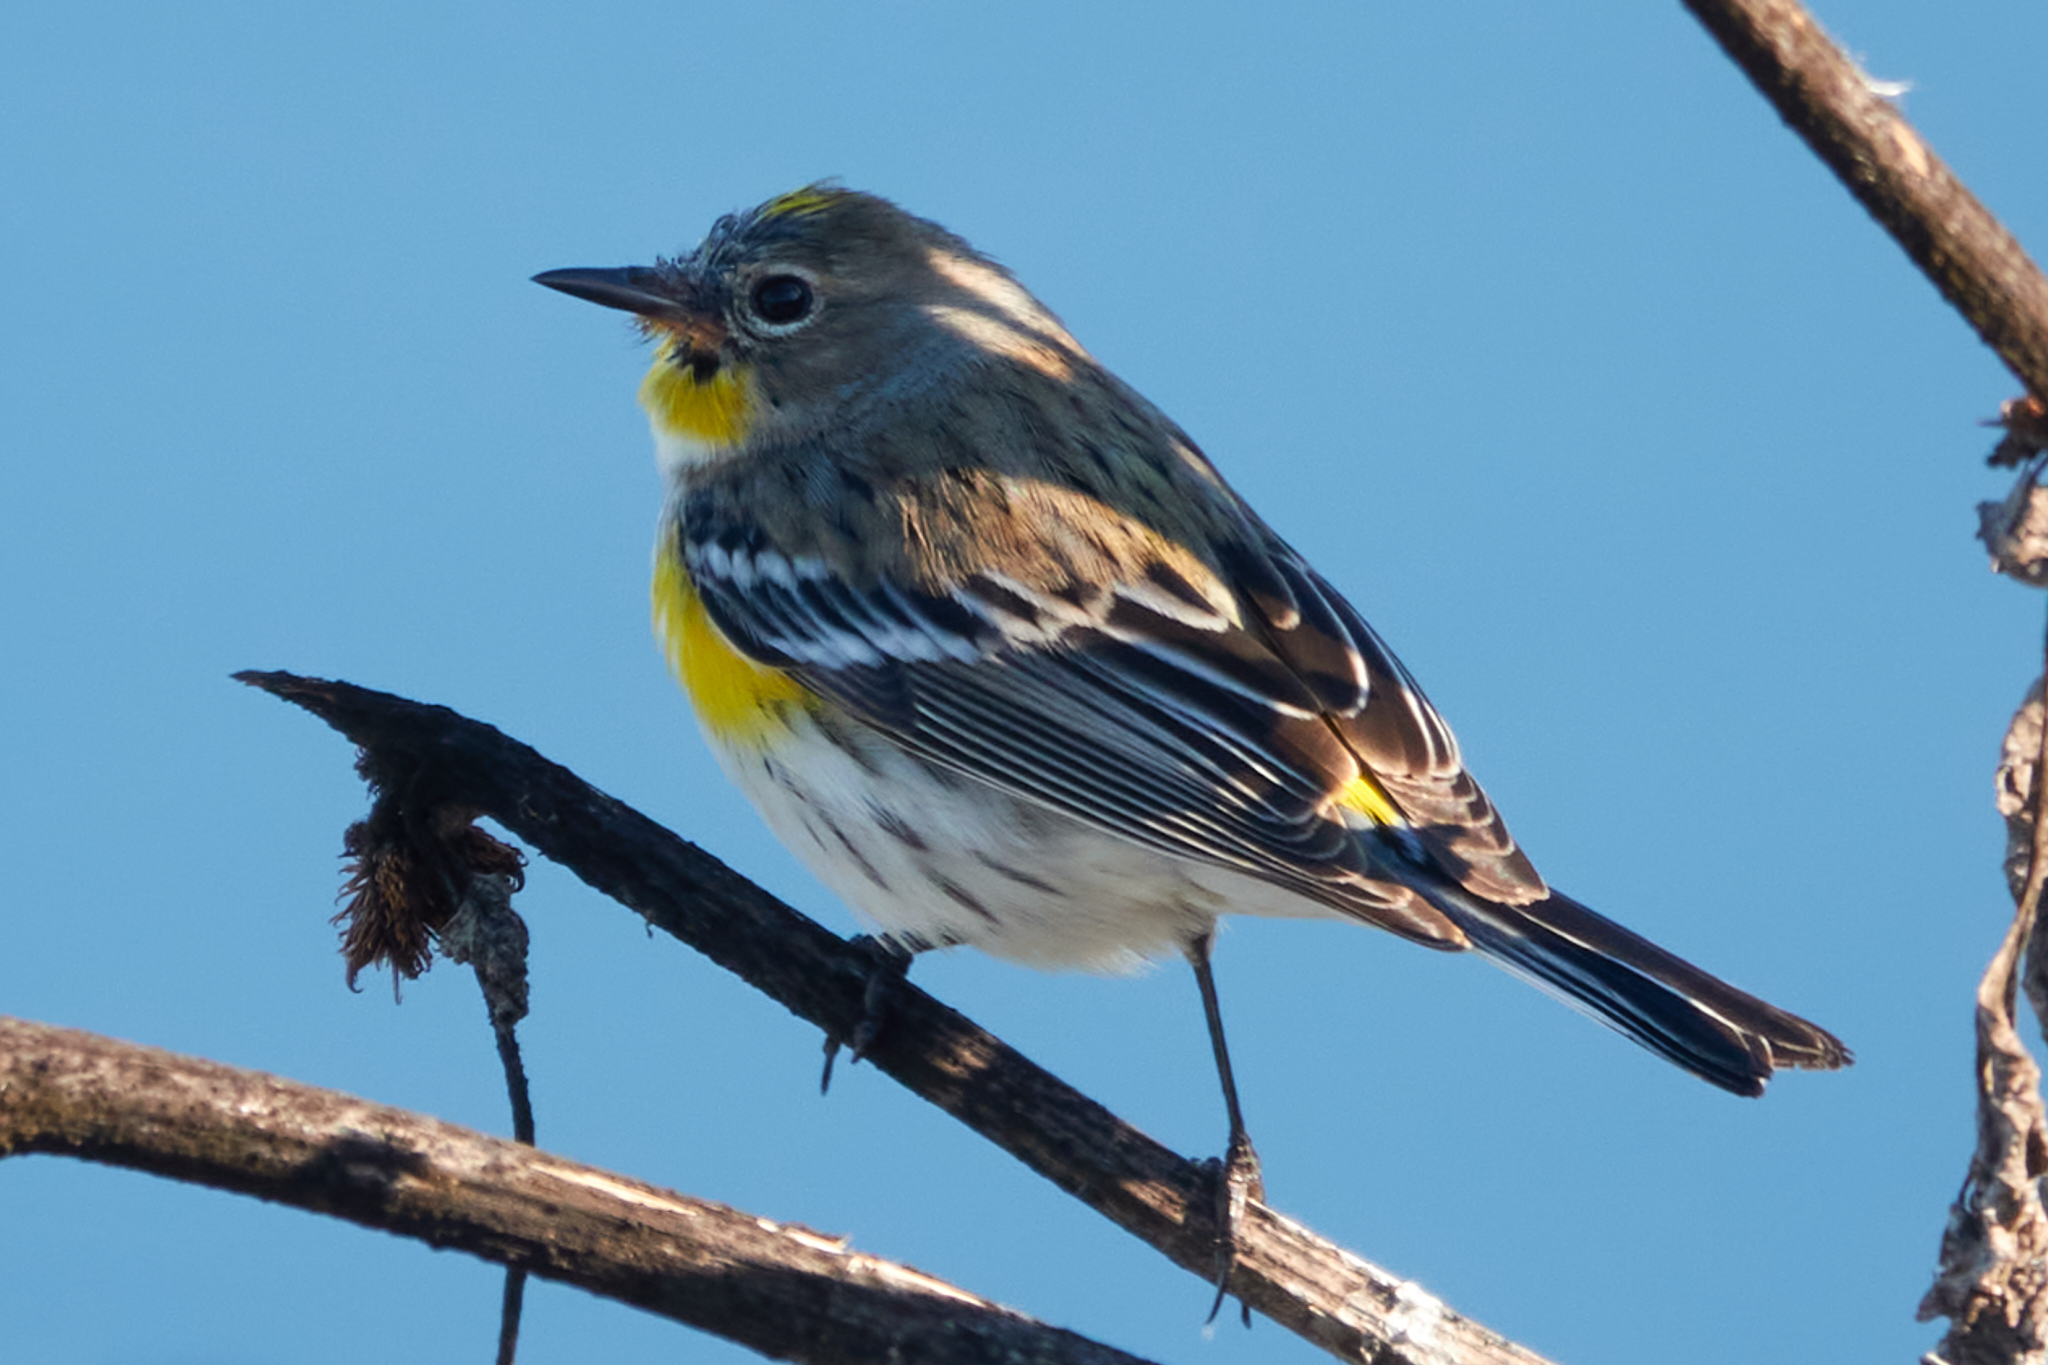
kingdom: Animalia
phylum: Chordata
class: Aves
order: Passeriformes
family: Parulidae
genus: Setophaga
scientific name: Setophaga coronata
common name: Myrtle warbler
